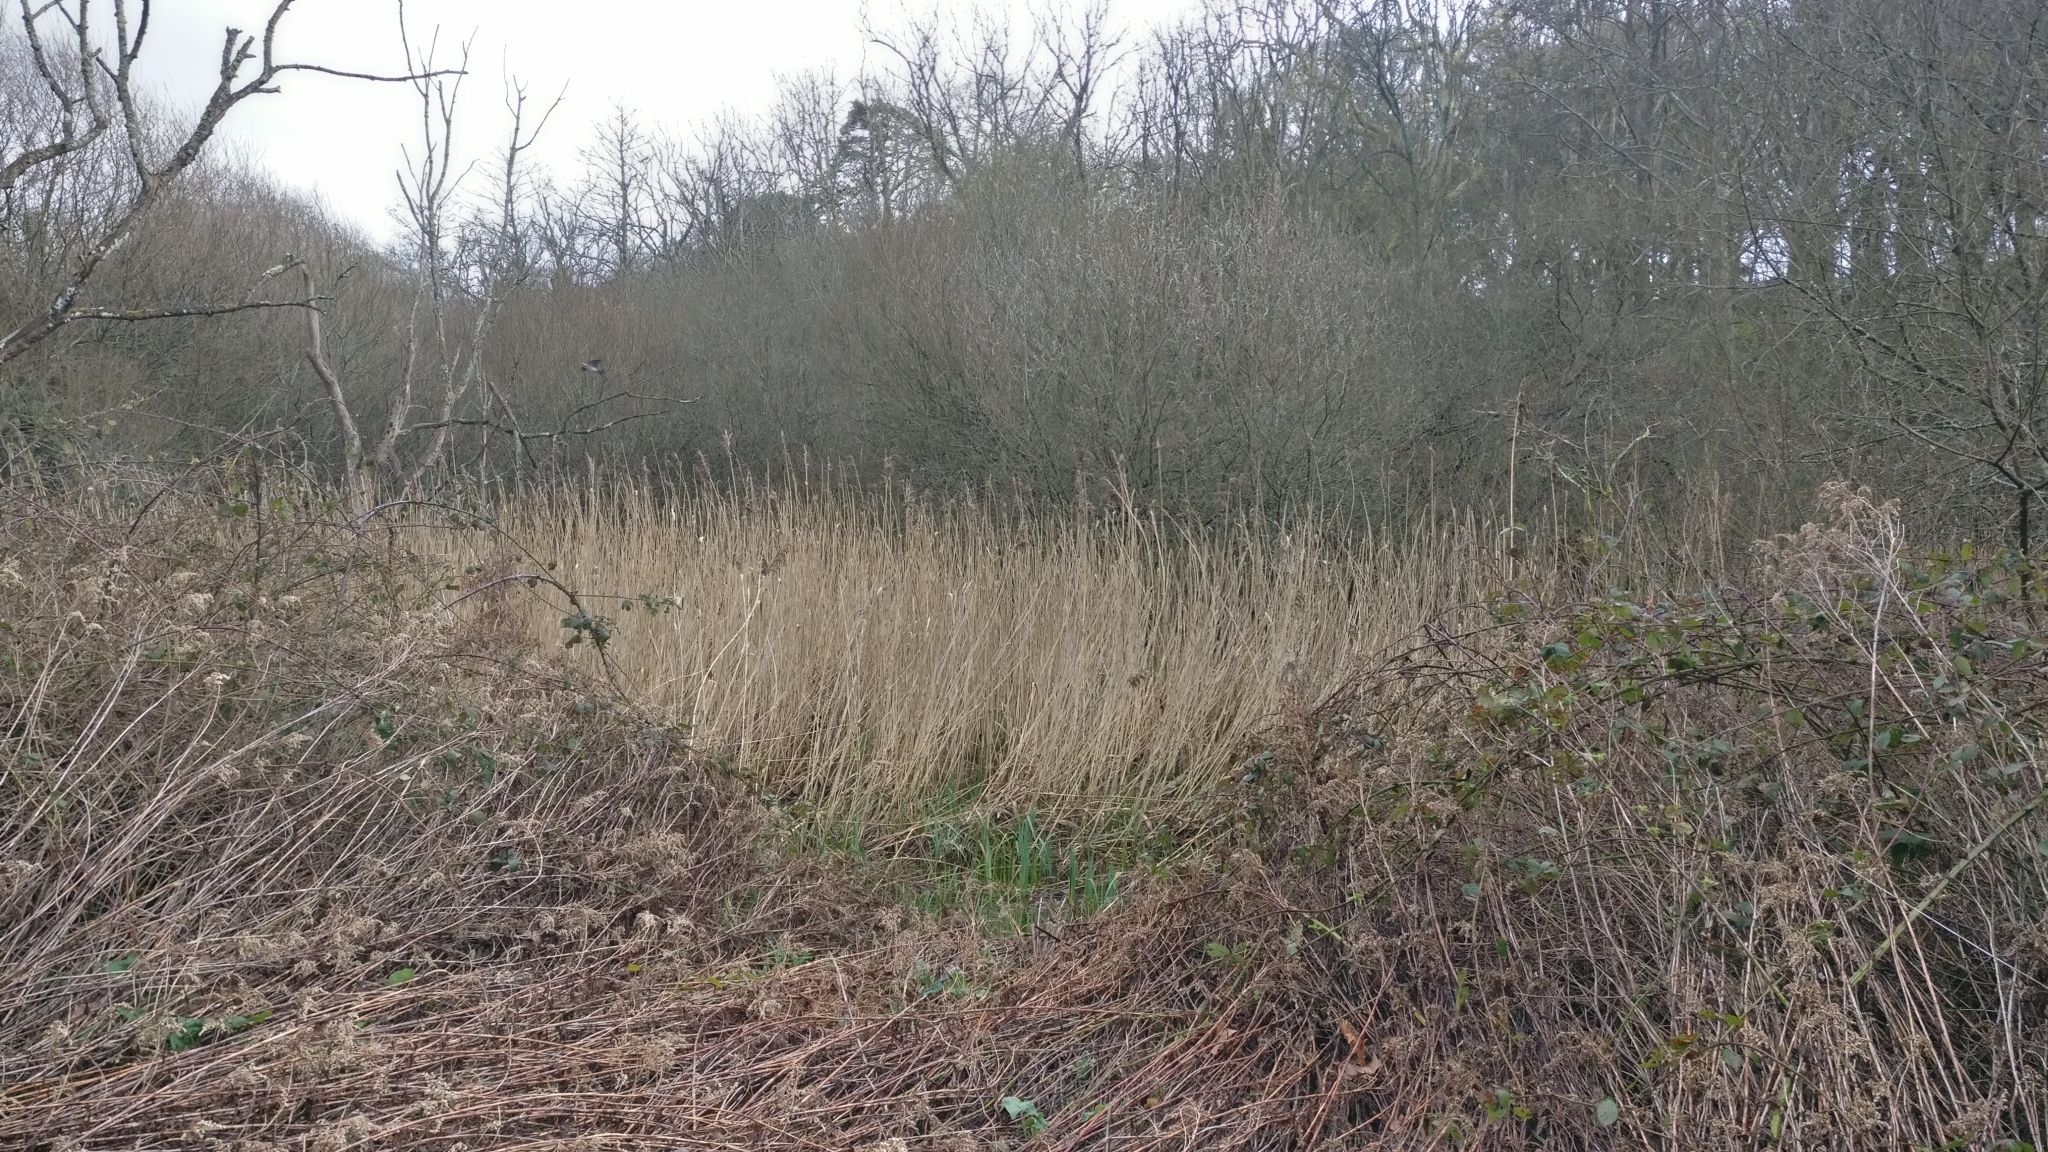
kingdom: Plantae
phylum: Tracheophyta
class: Liliopsida
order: Poales
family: Poaceae
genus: Phragmites
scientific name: Phragmites australis
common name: Common reed
